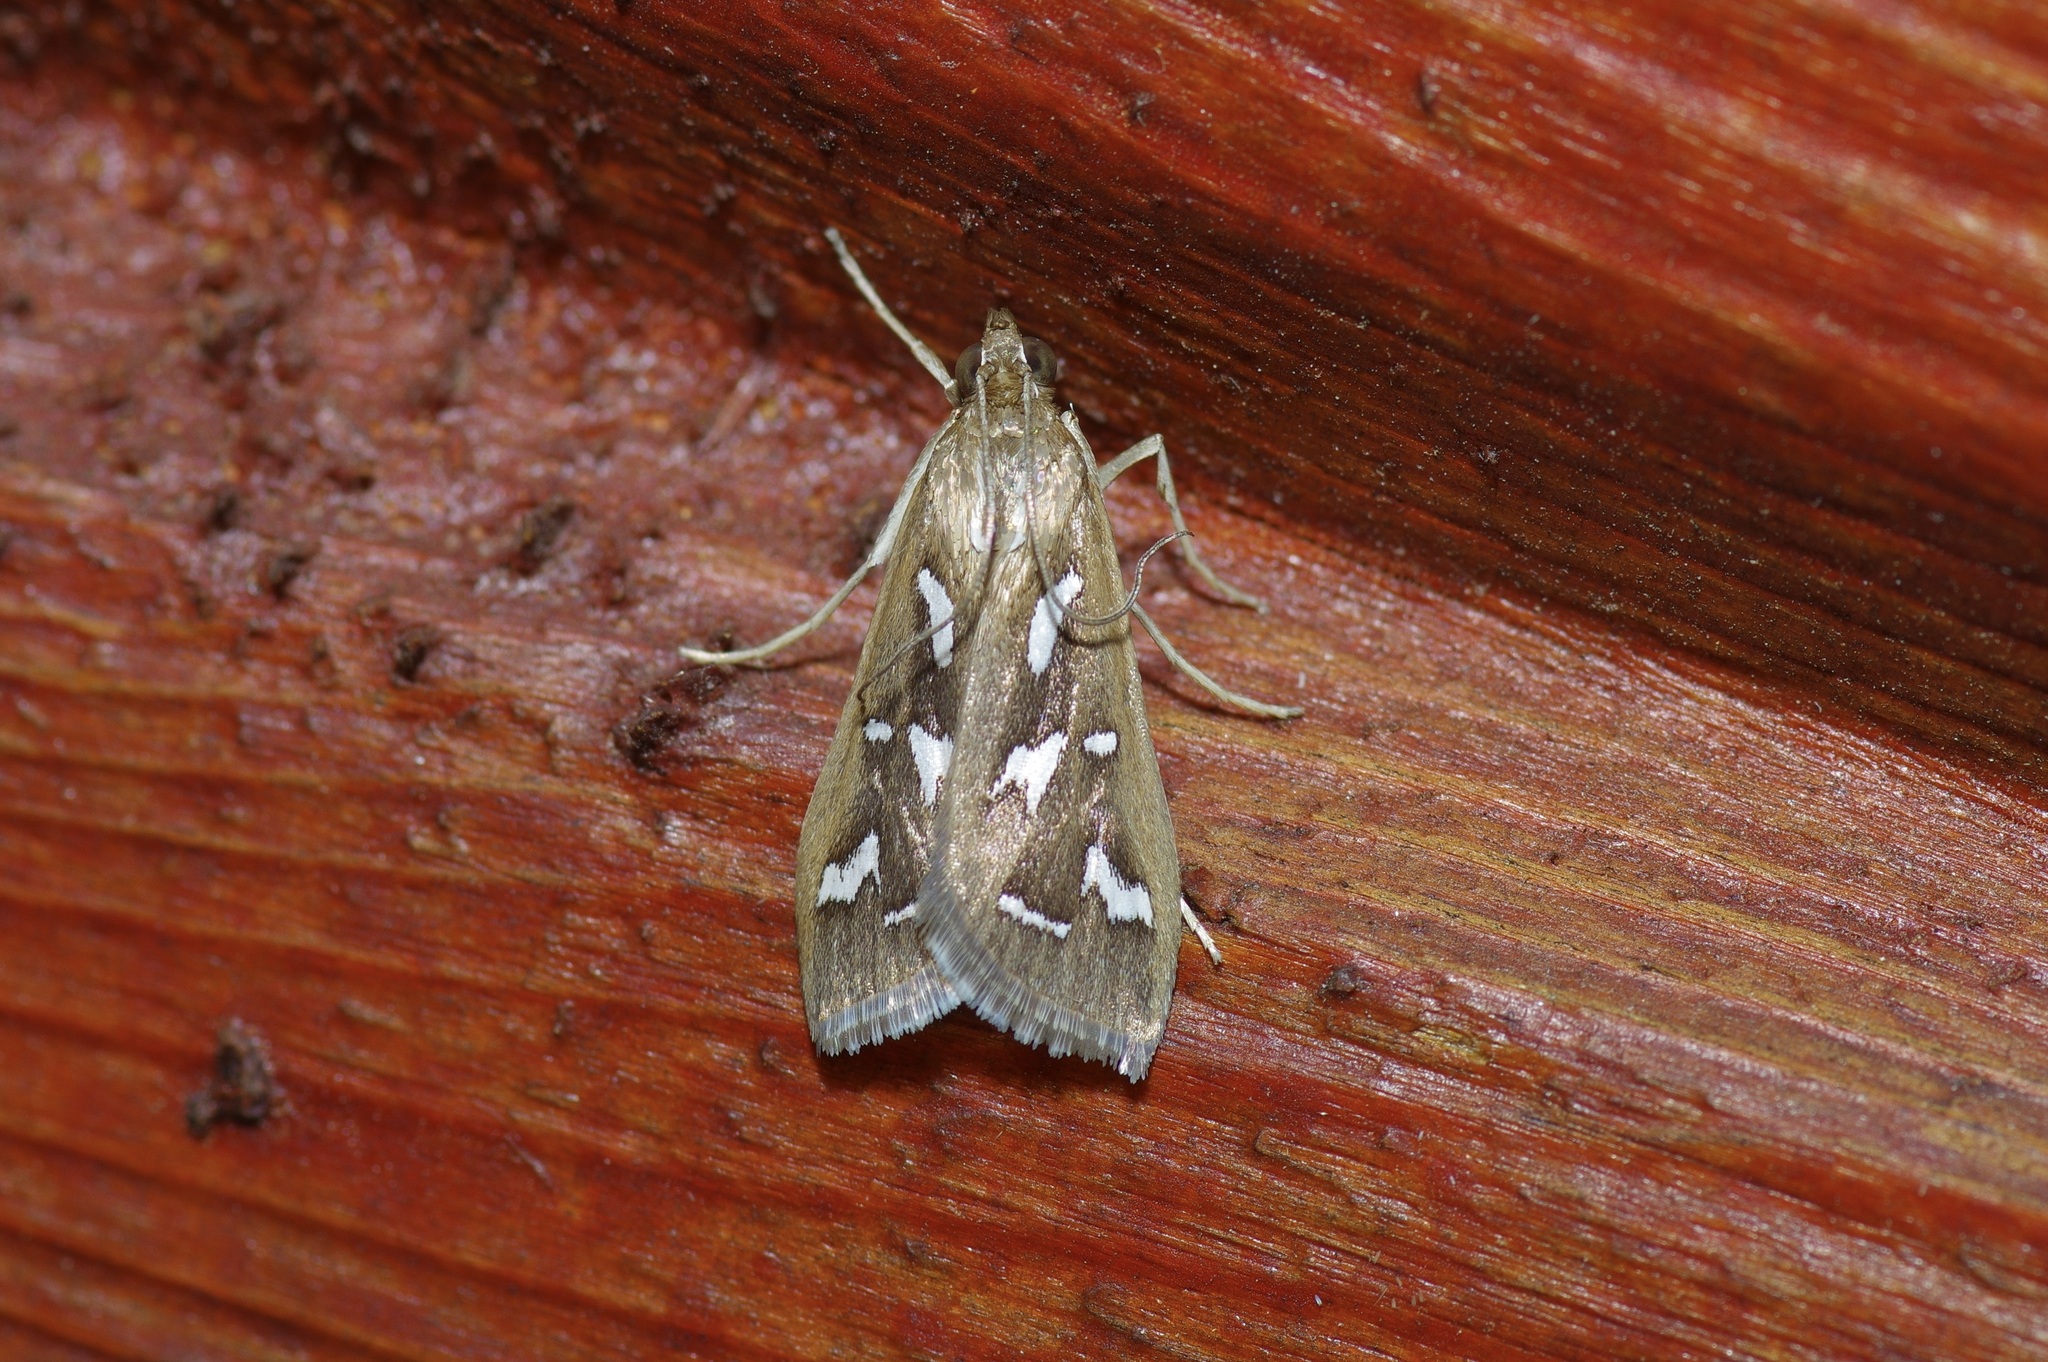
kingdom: Animalia
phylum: Arthropoda
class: Insecta
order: Lepidoptera
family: Crambidae
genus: Diastictis
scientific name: Diastictis fracturalis
